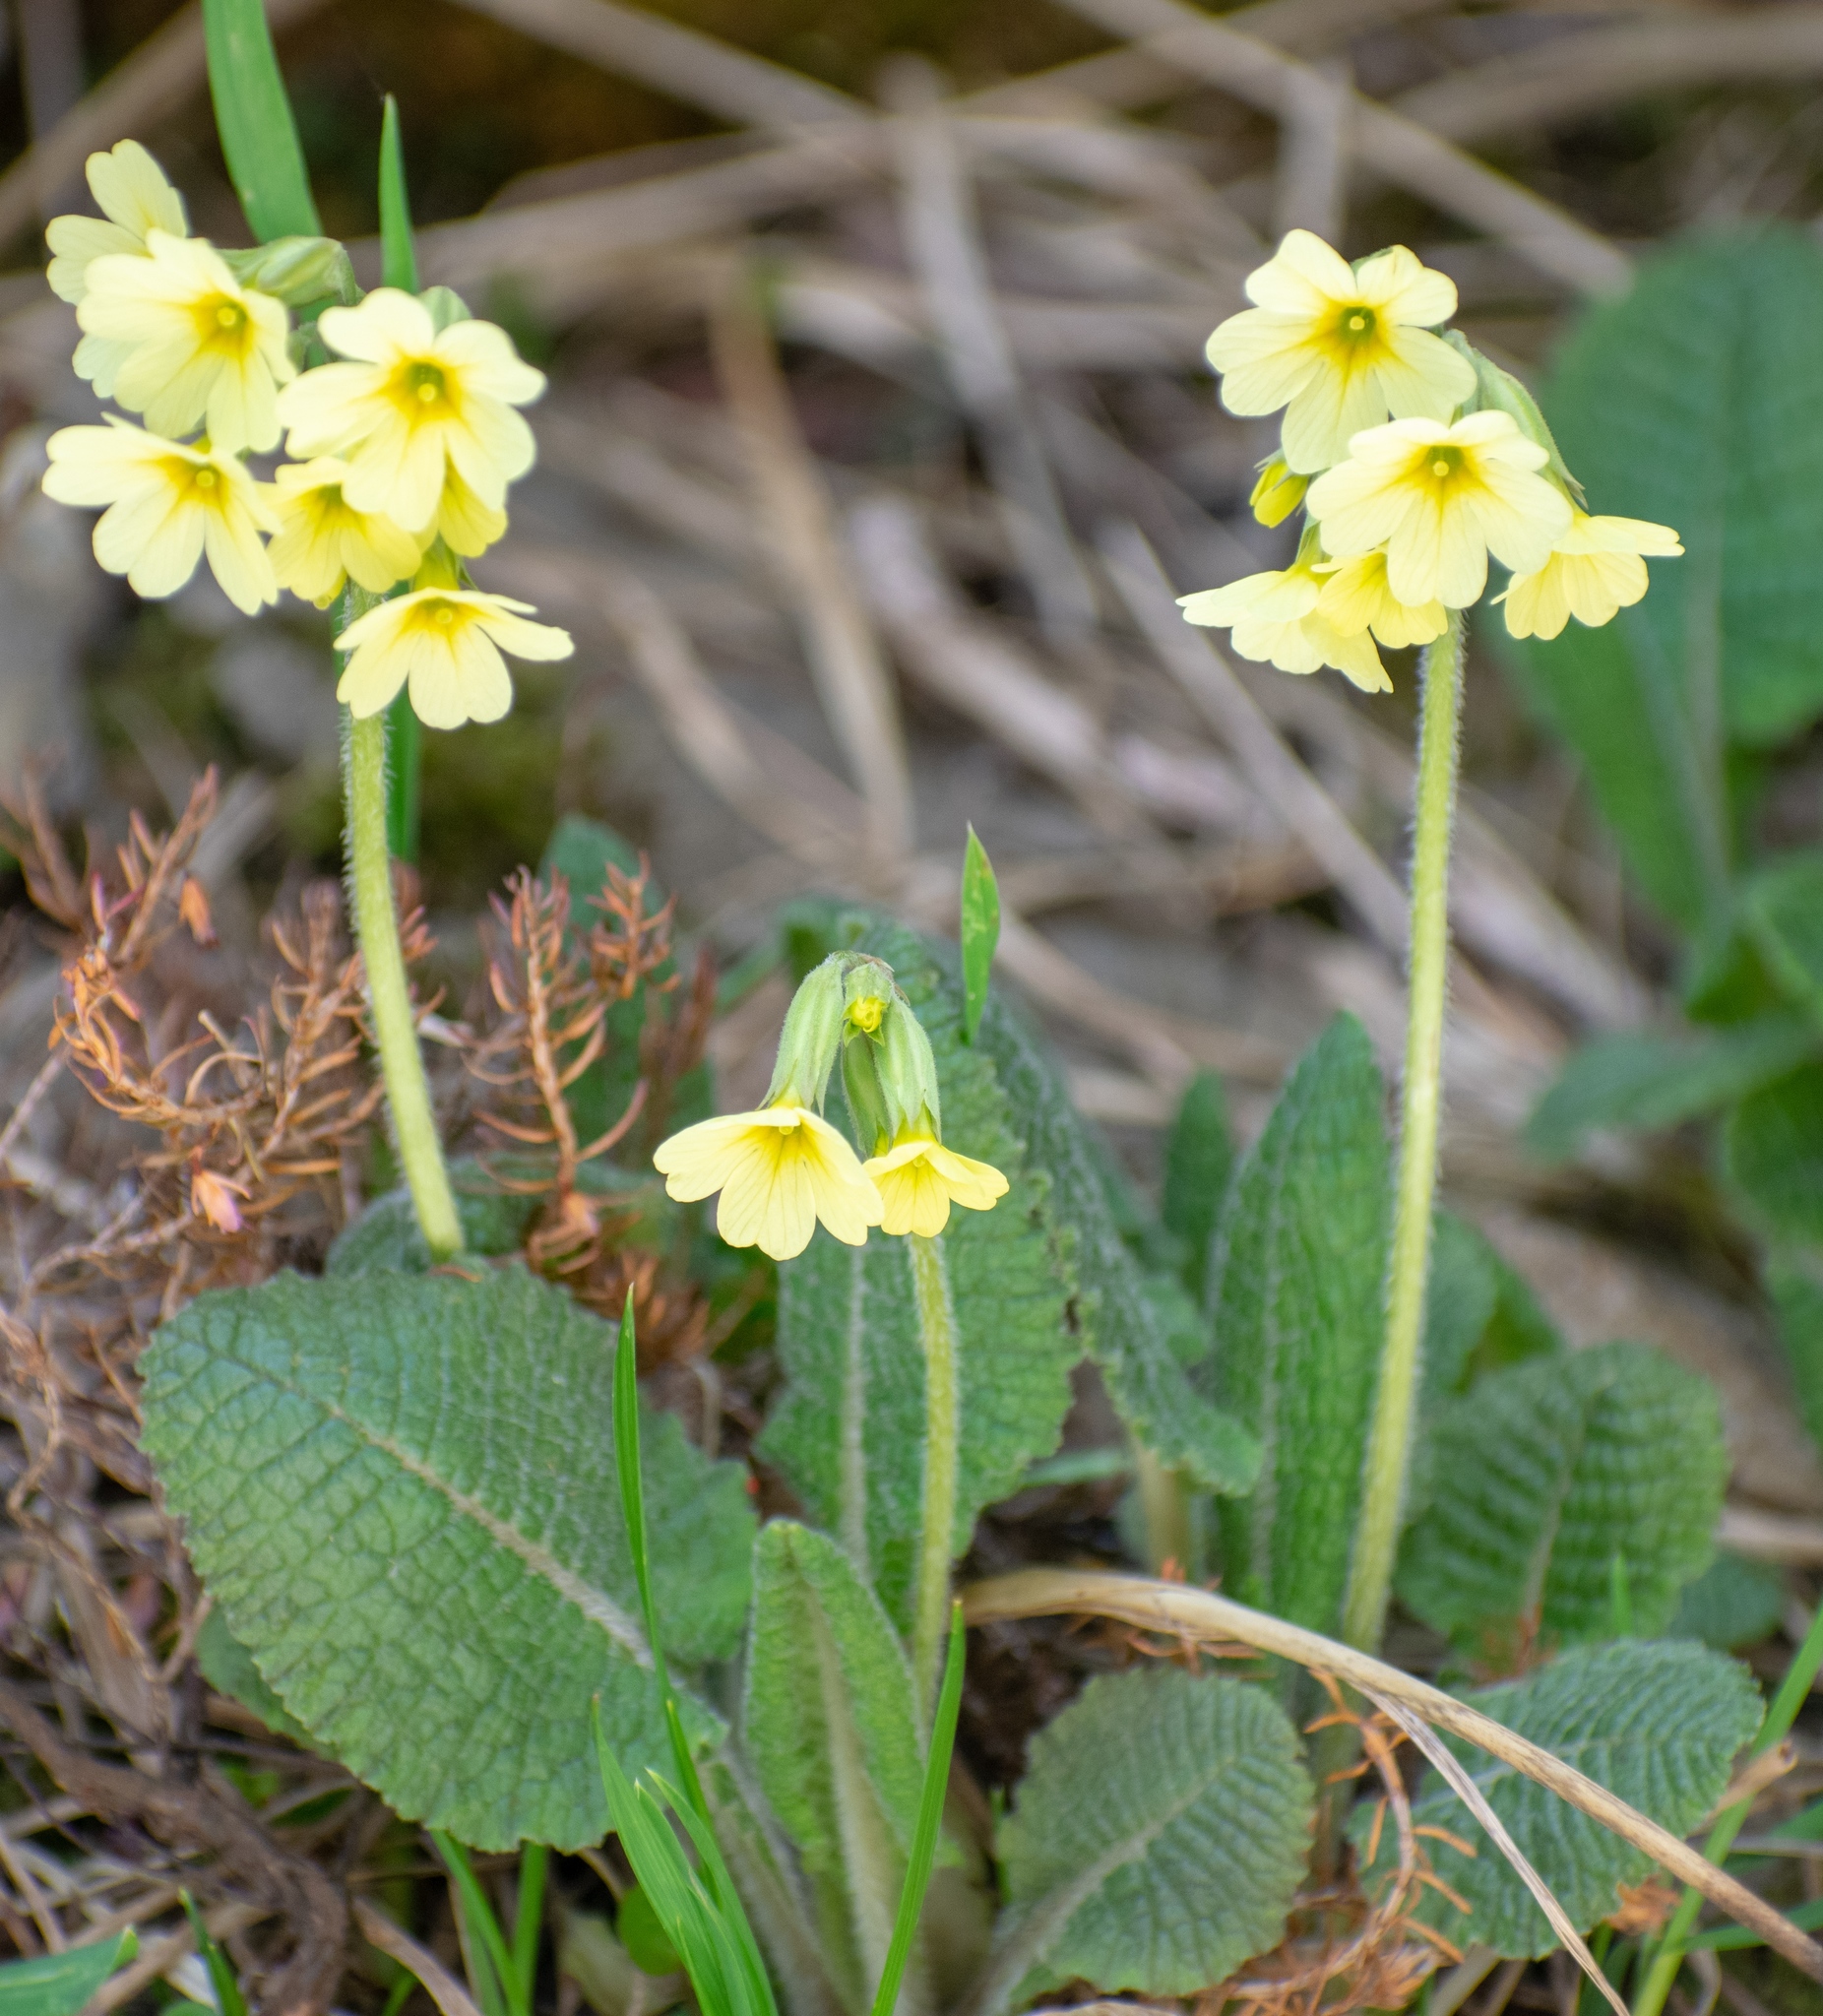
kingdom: Plantae
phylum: Tracheophyta
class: Magnoliopsida
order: Ericales
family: Primulaceae
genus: Primula
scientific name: Primula elatior
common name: Oxlip
